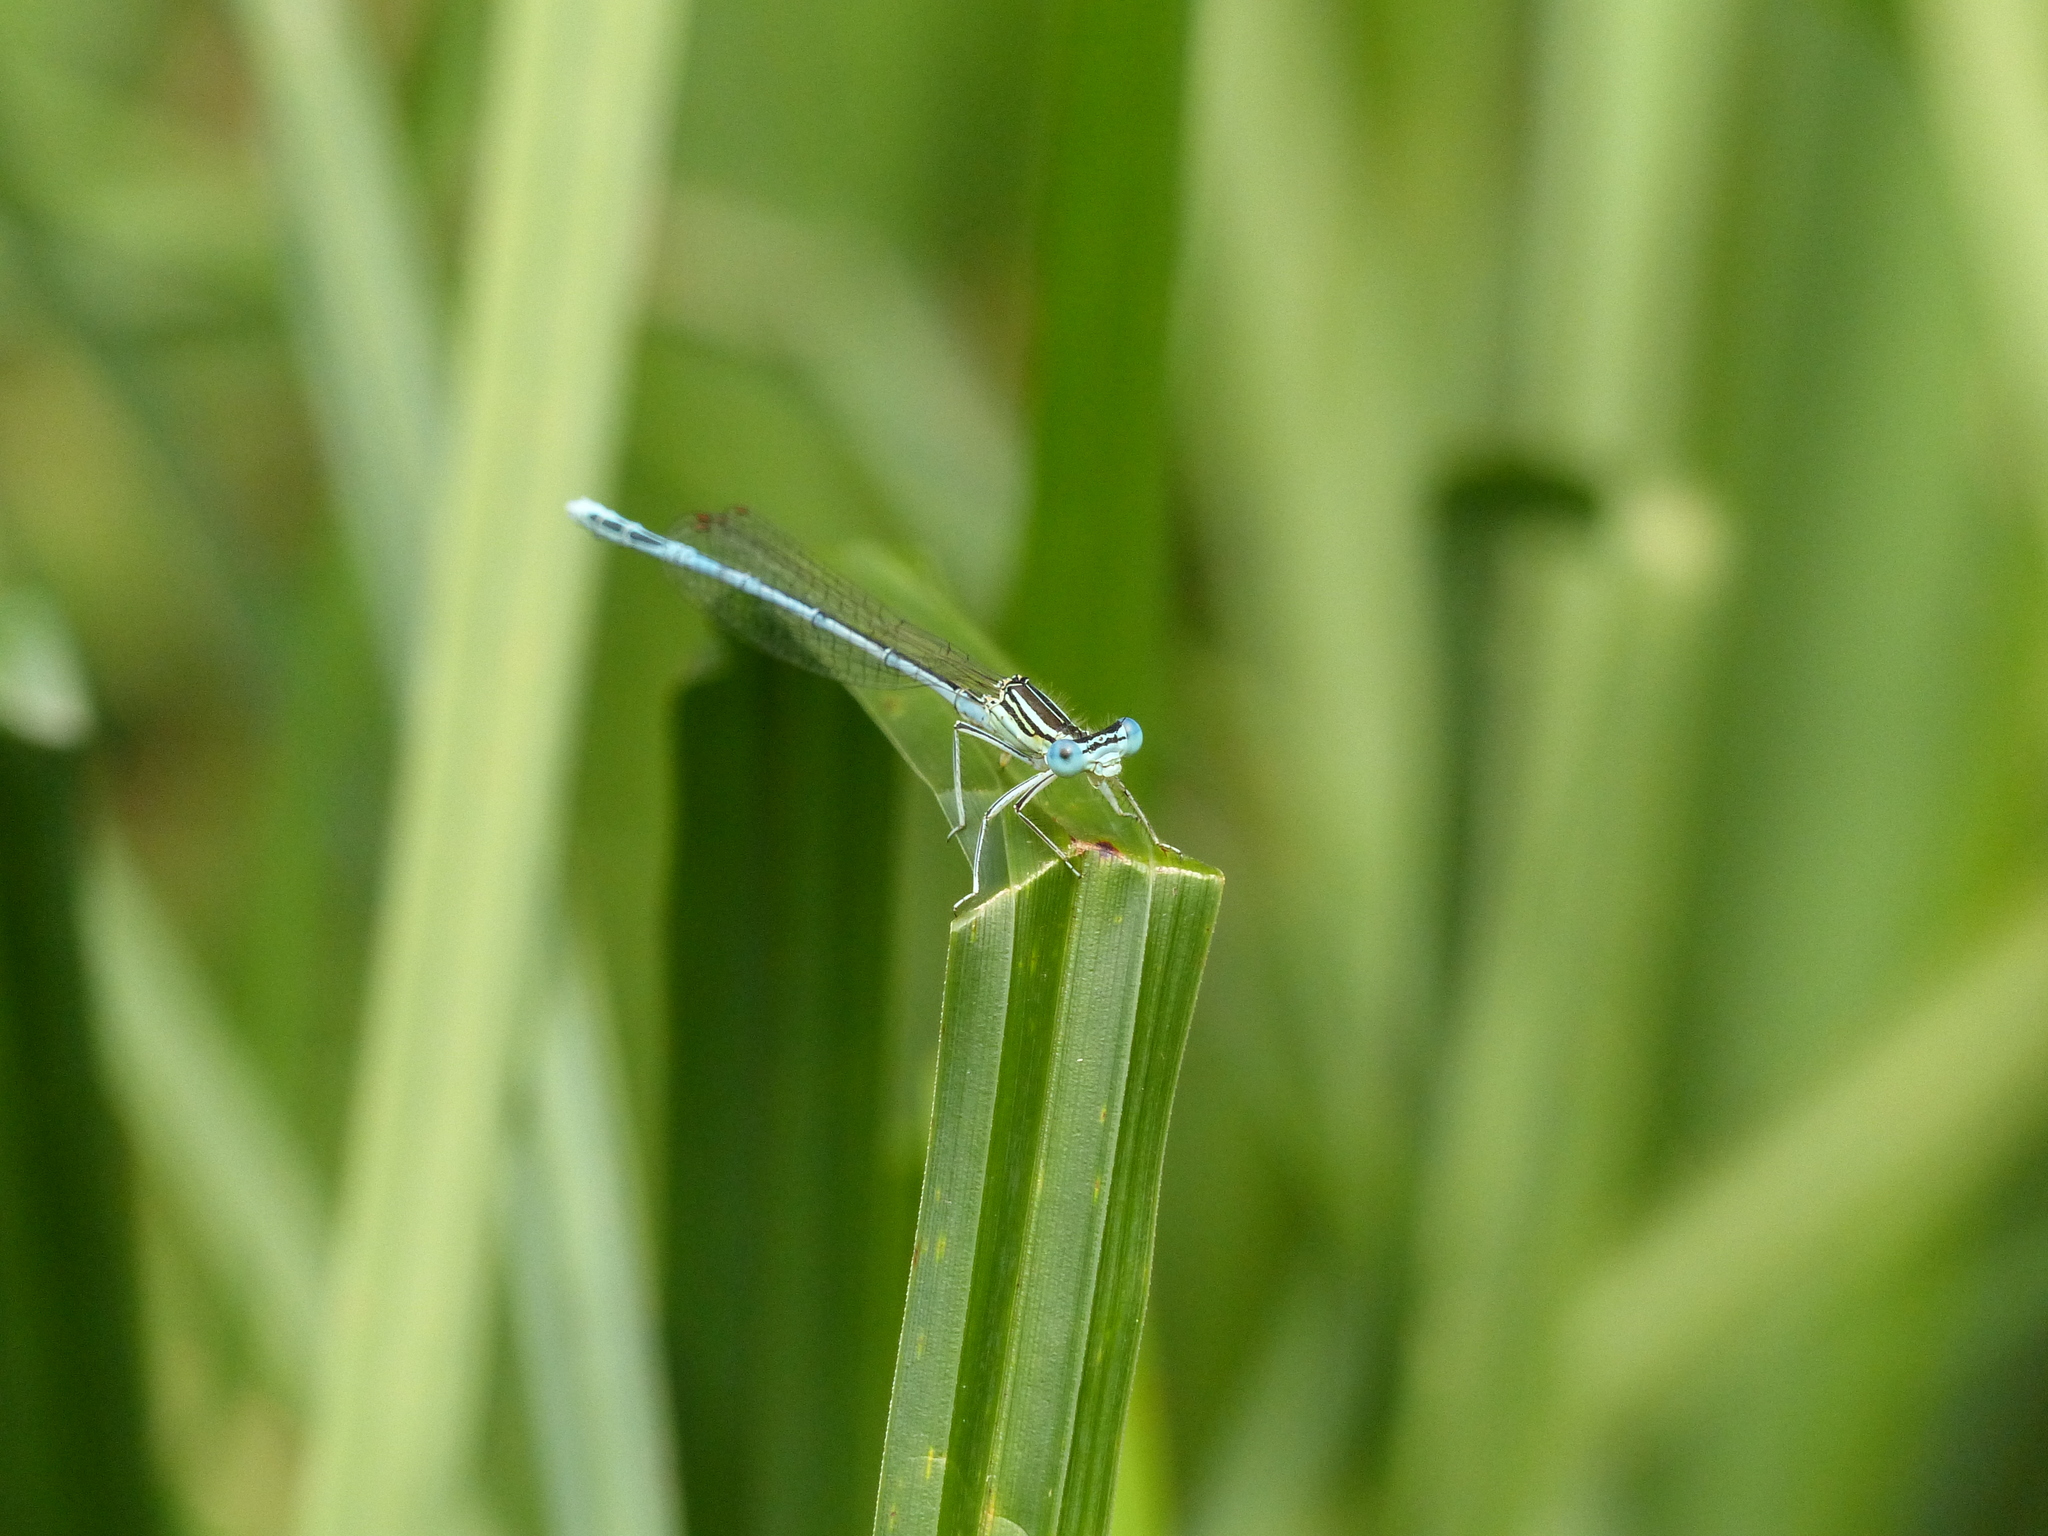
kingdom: Animalia
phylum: Arthropoda
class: Insecta
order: Odonata
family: Platycnemididae
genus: Platycnemis
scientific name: Platycnemis pennipes
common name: White-legged damselfly
